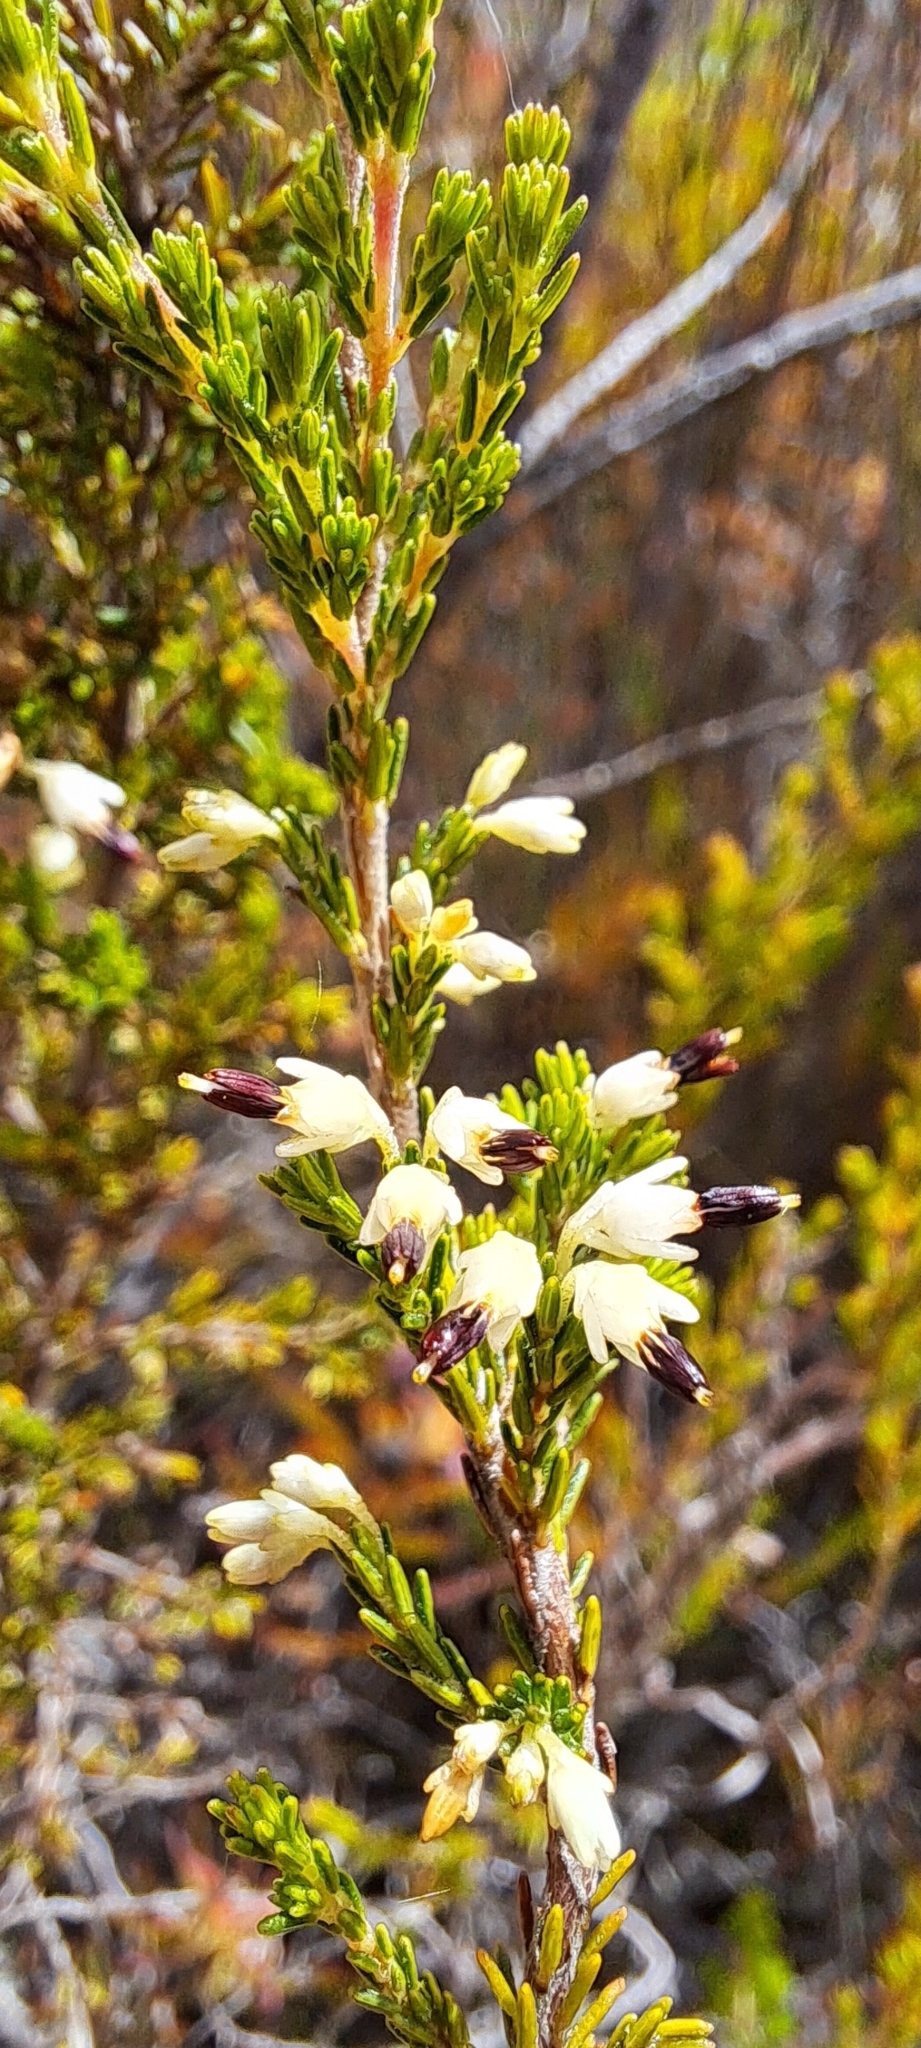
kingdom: Plantae
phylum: Tracheophyta
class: Magnoliopsida
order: Ericales
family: Ericaceae
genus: Erica
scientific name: Erica imbricata
